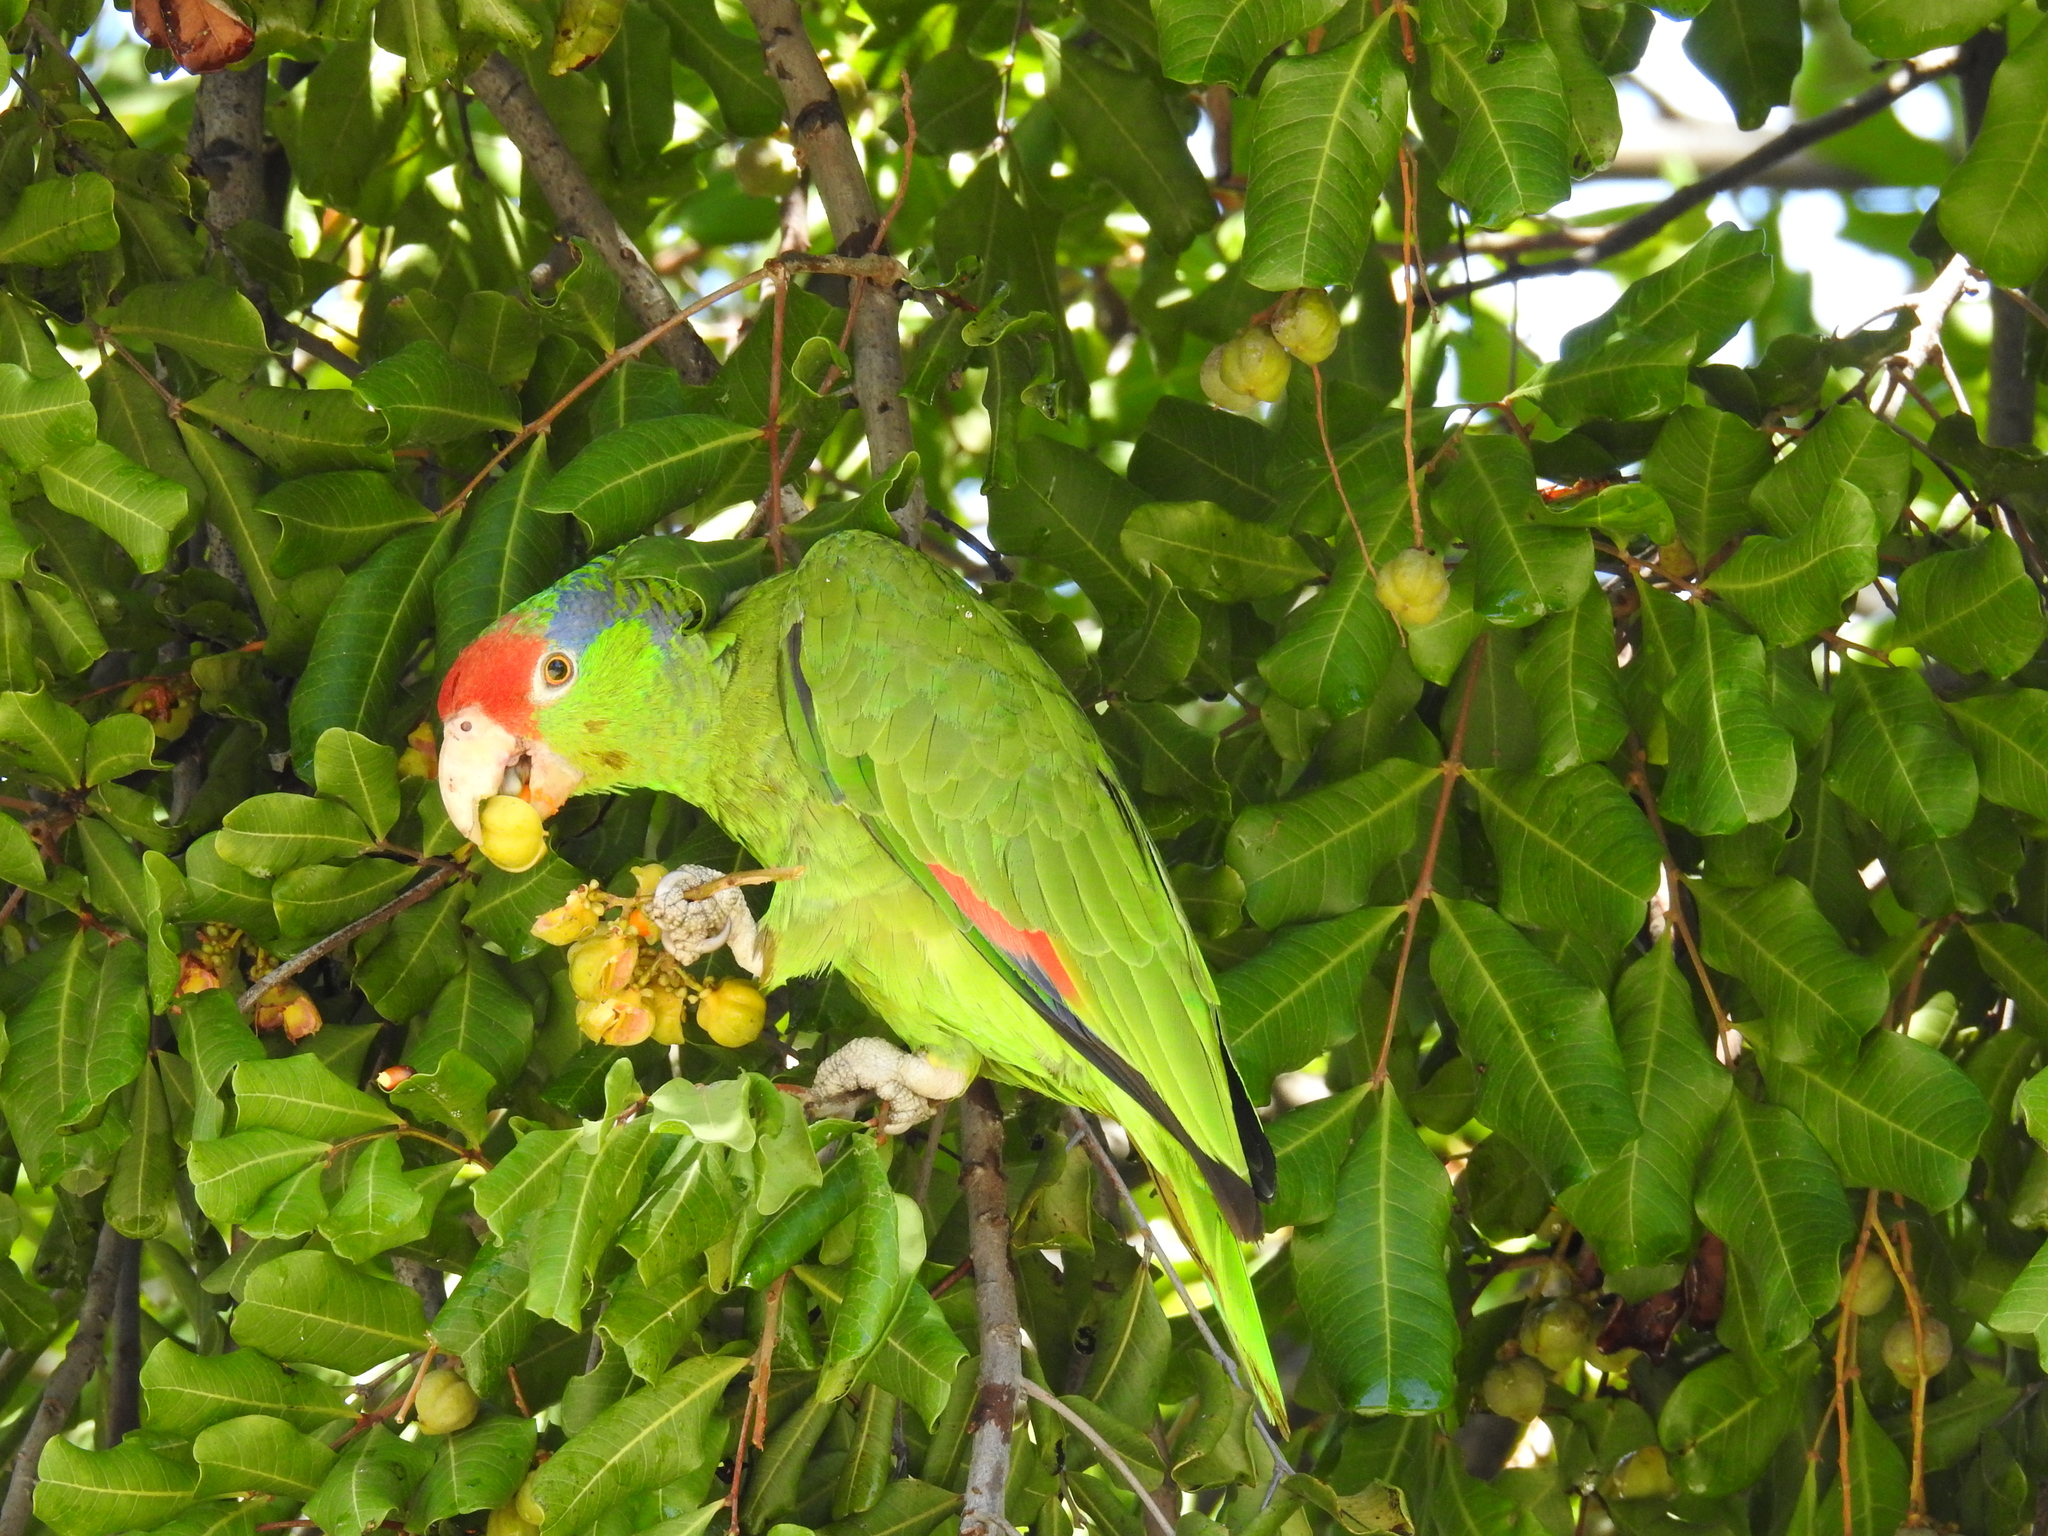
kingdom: Animalia
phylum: Chordata
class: Aves
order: Psittaciformes
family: Psittacidae
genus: Amazona
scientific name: Amazona viridigenalis
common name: Red-crowned amazon
